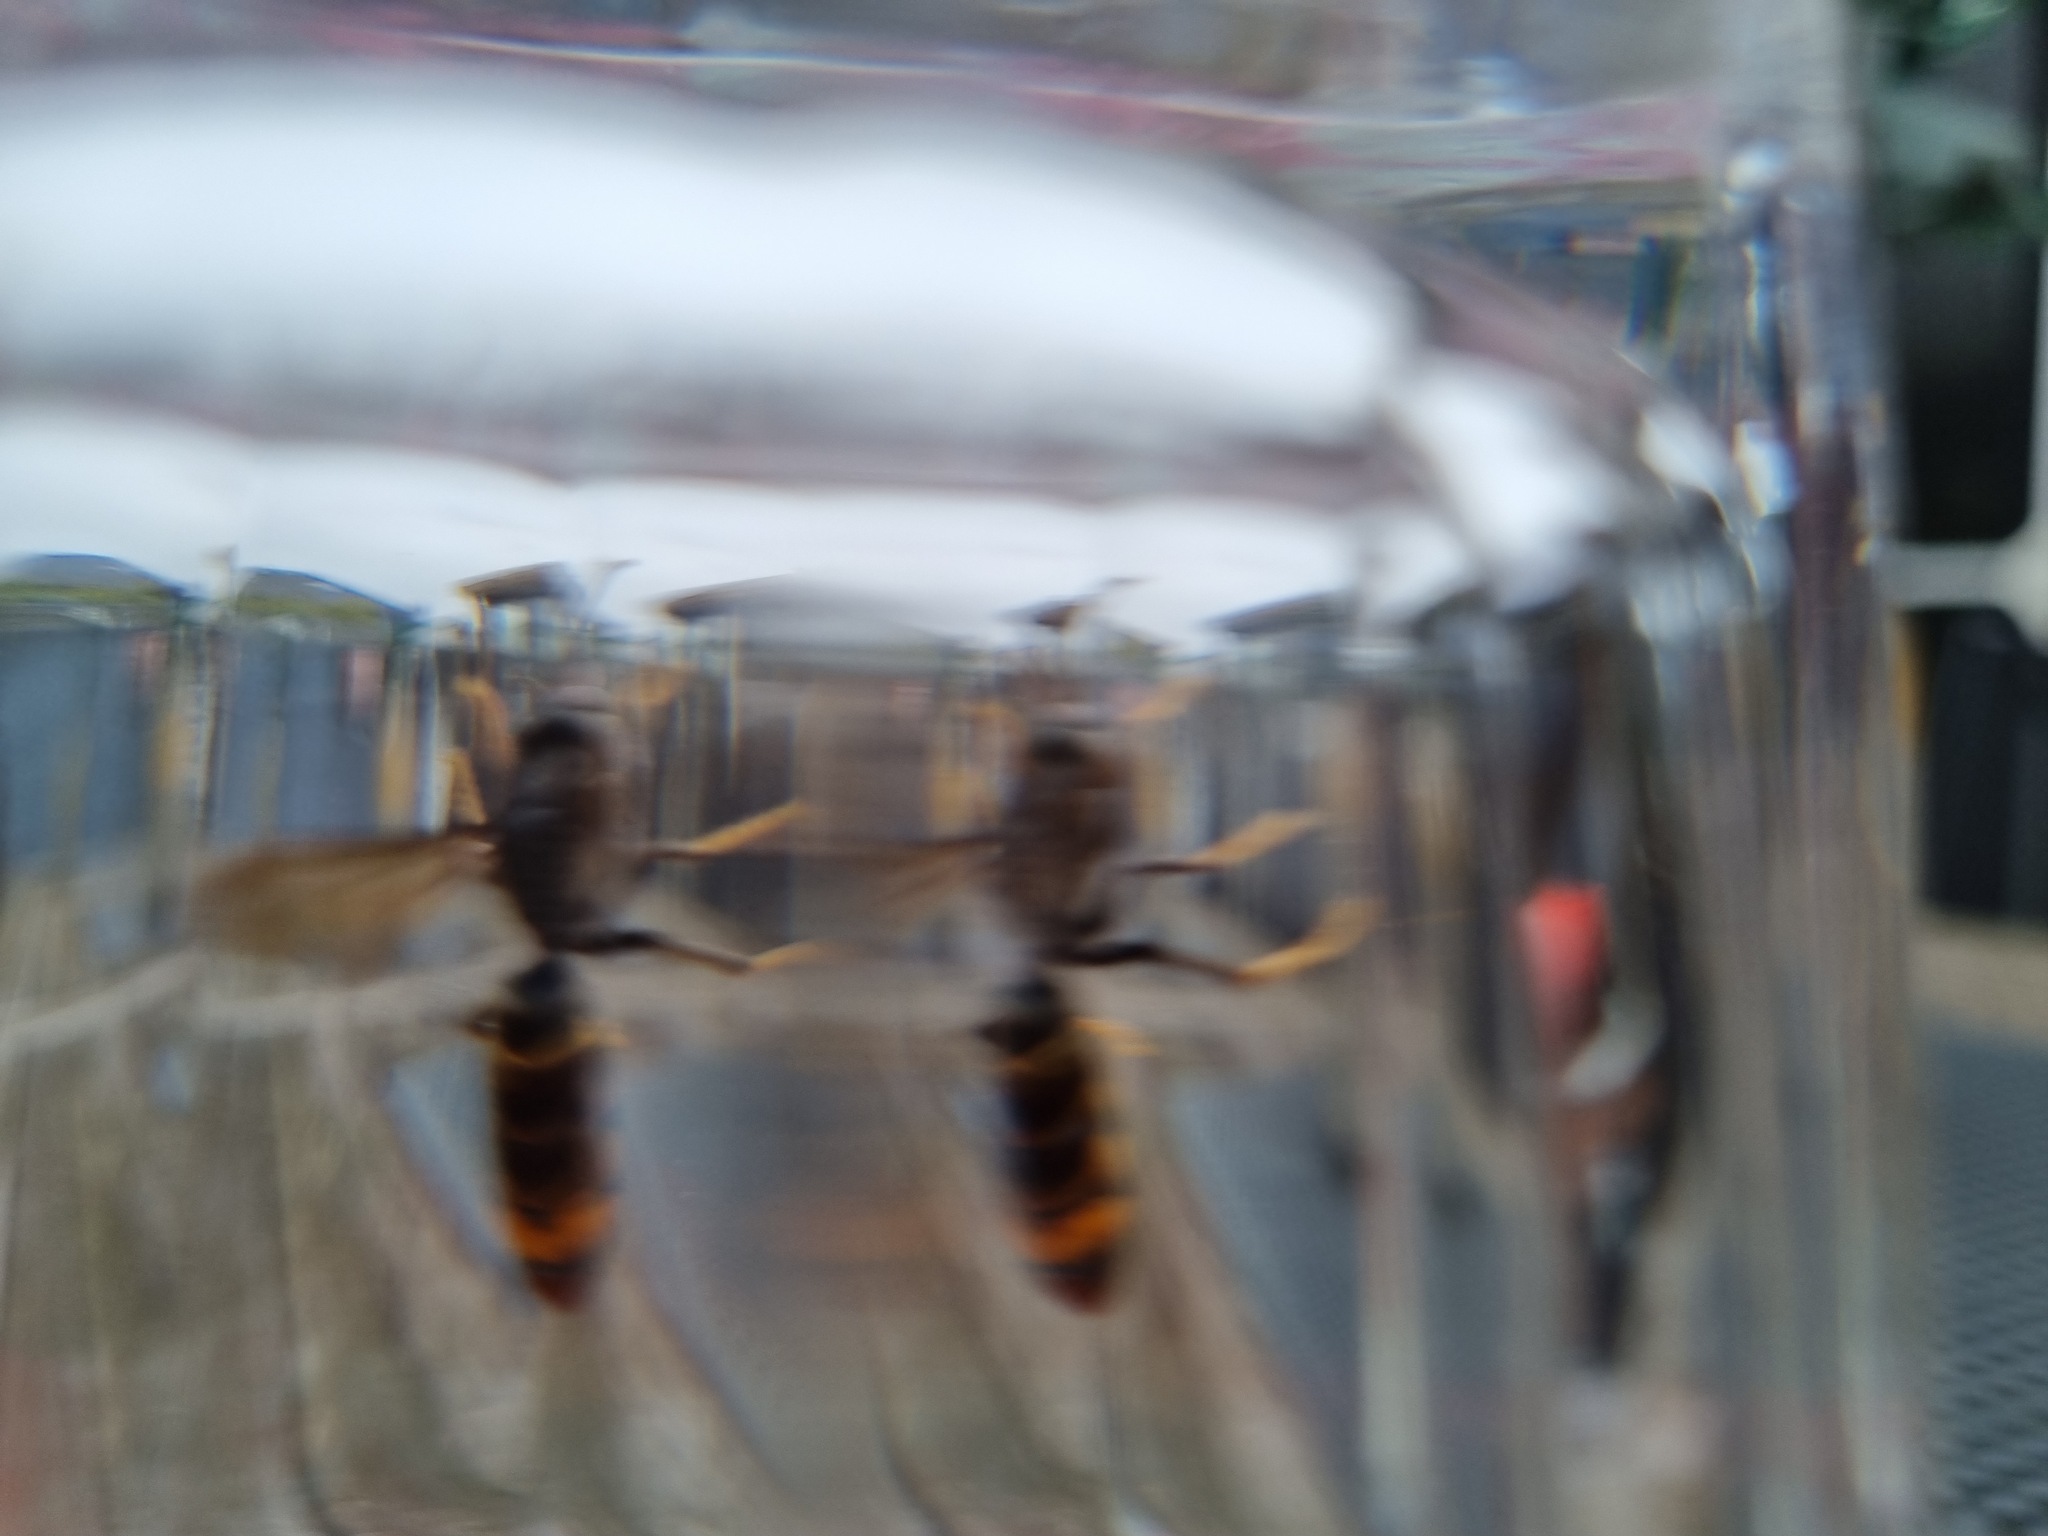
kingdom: Animalia
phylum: Arthropoda
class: Insecta
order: Hymenoptera
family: Vespidae
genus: Vespa
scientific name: Vespa velutina
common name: Asian hornet
